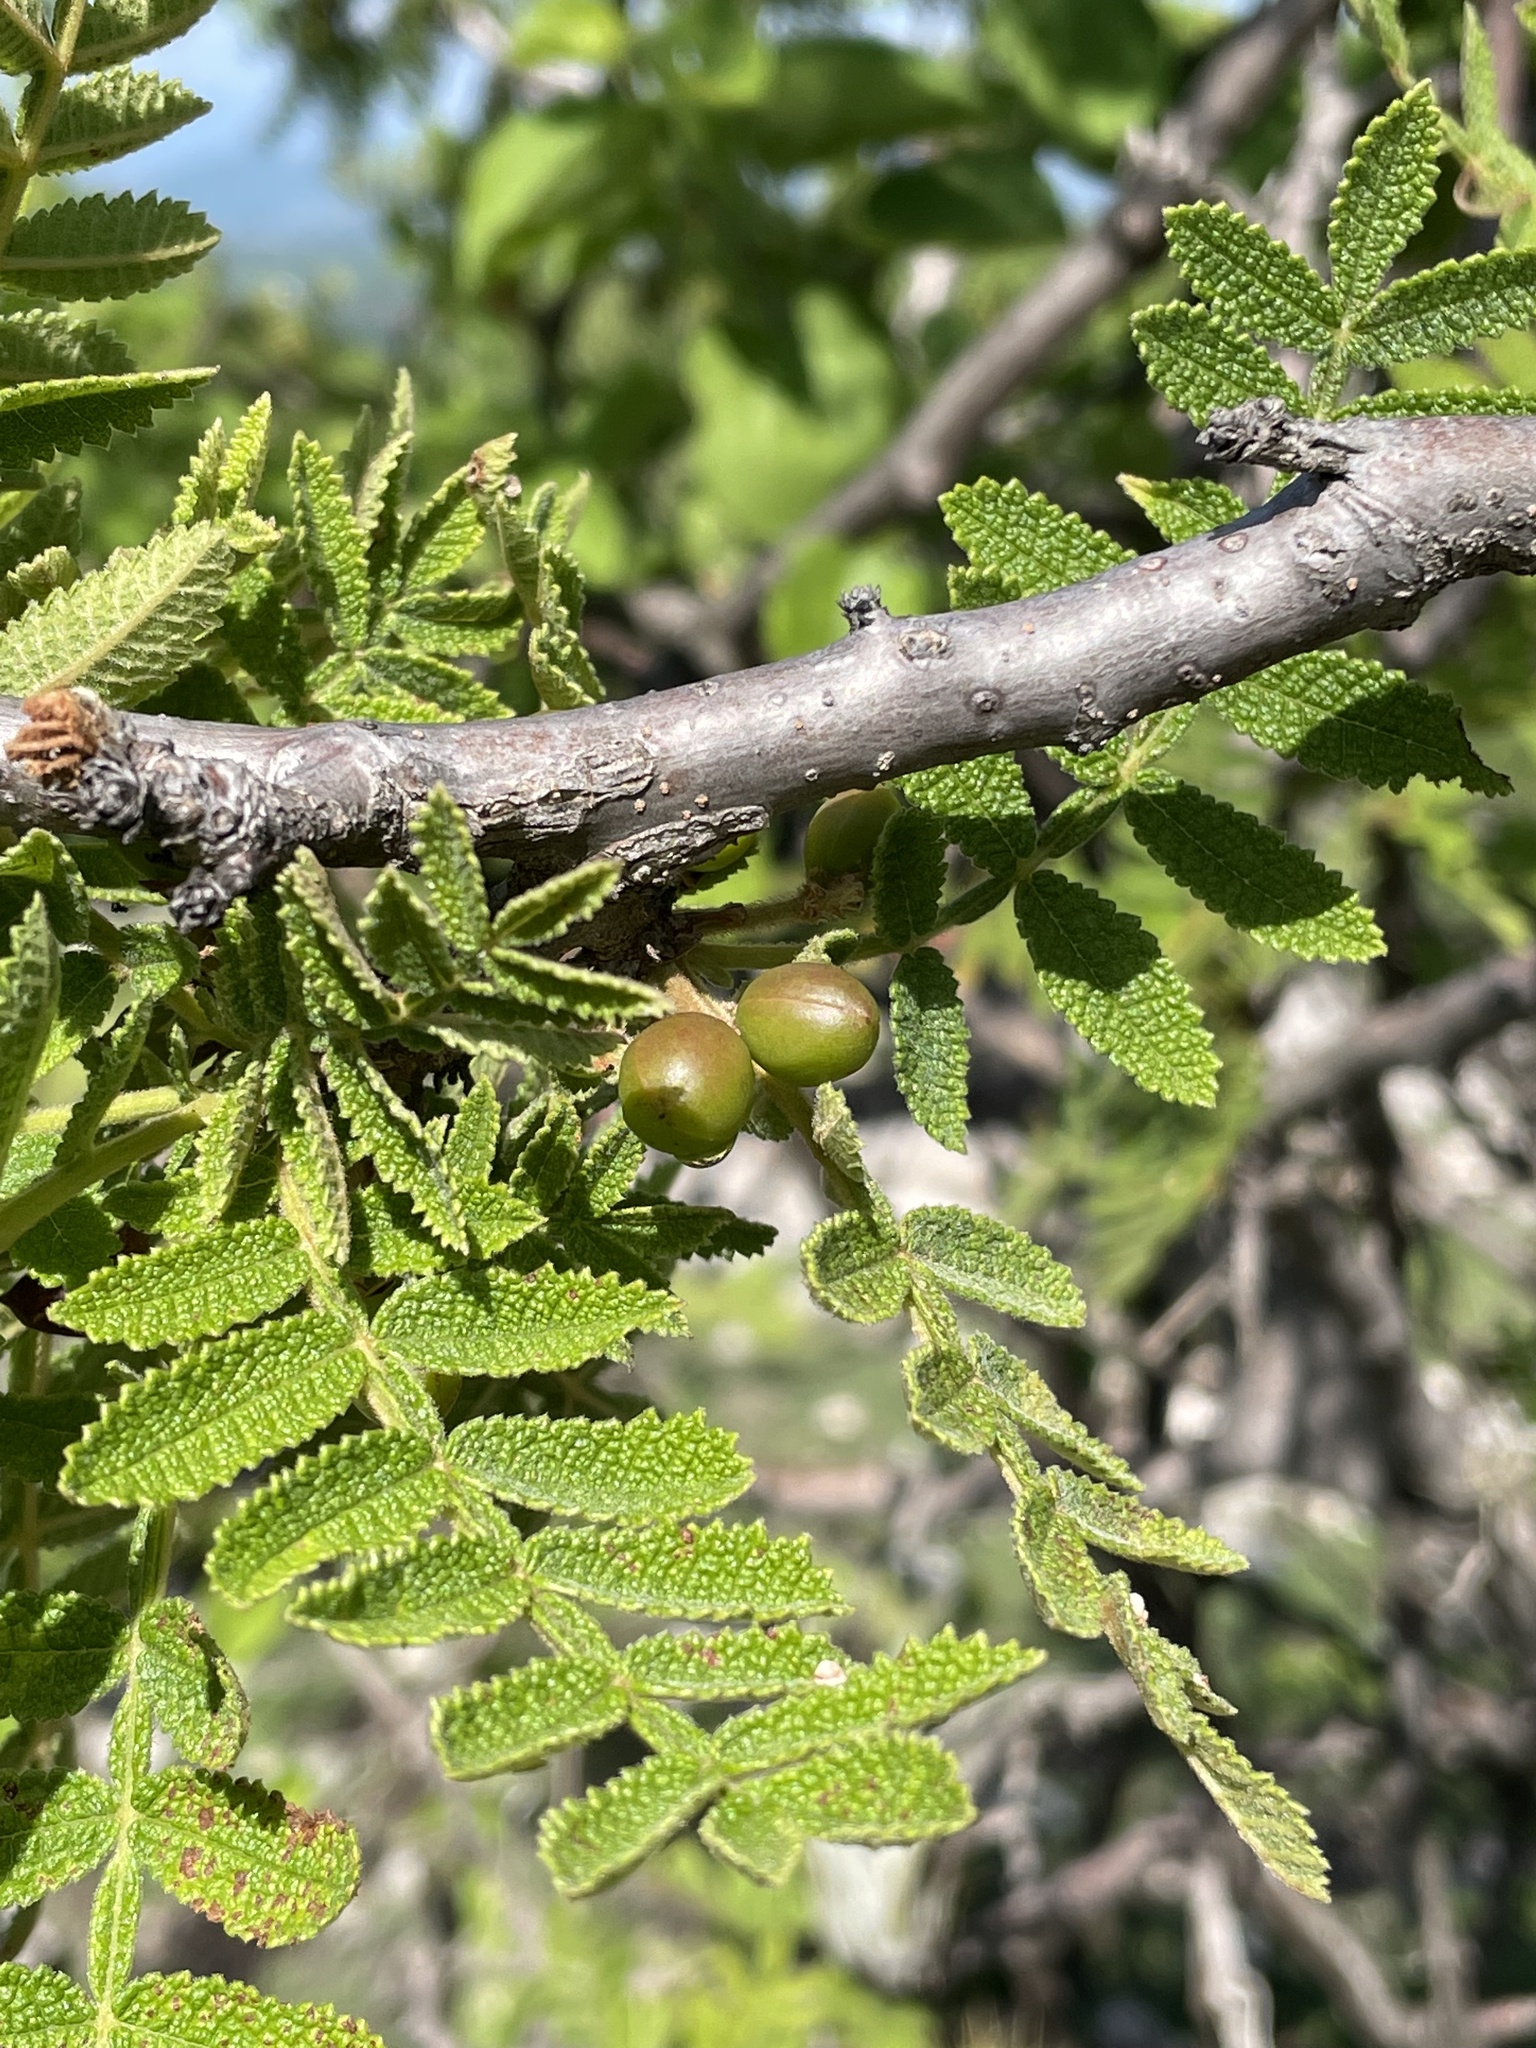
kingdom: Plantae
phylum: Tracheophyta
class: Magnoliopsida
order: Sapindales
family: Burseraceae
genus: Bursera
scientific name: Bursera copallifera
